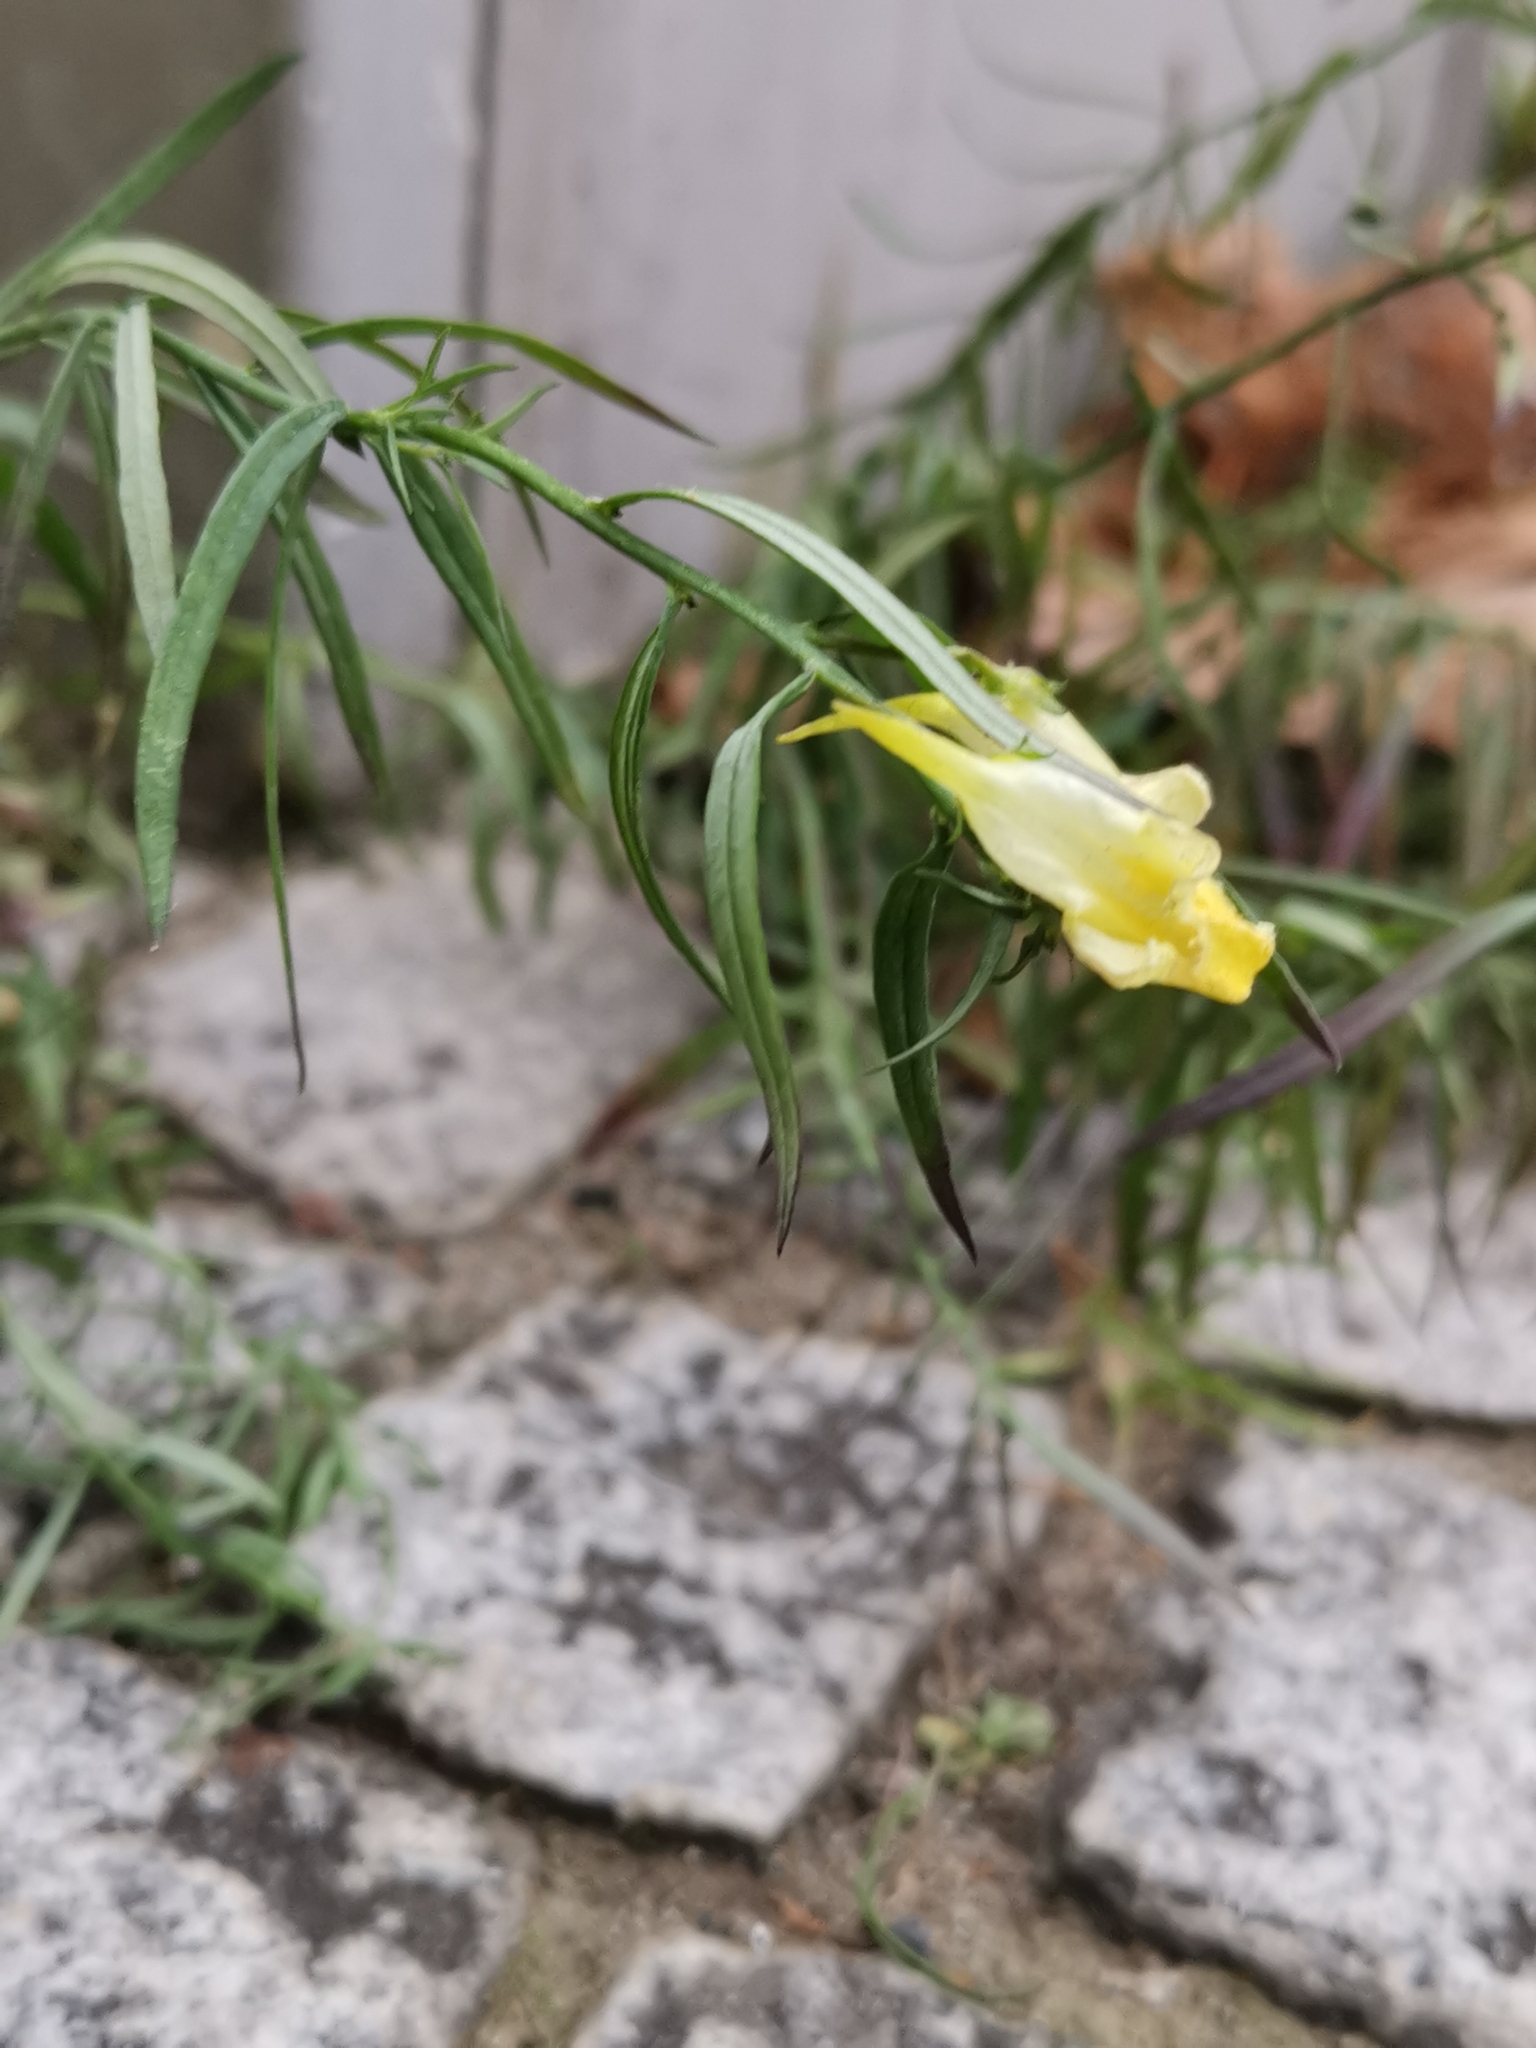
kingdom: Plantae
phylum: Tracheophyta
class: Magnoliopsida
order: Lamiales
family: Plantaginaceae
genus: Linaria
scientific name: Linaria vulgaris
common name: Butter and eggs
